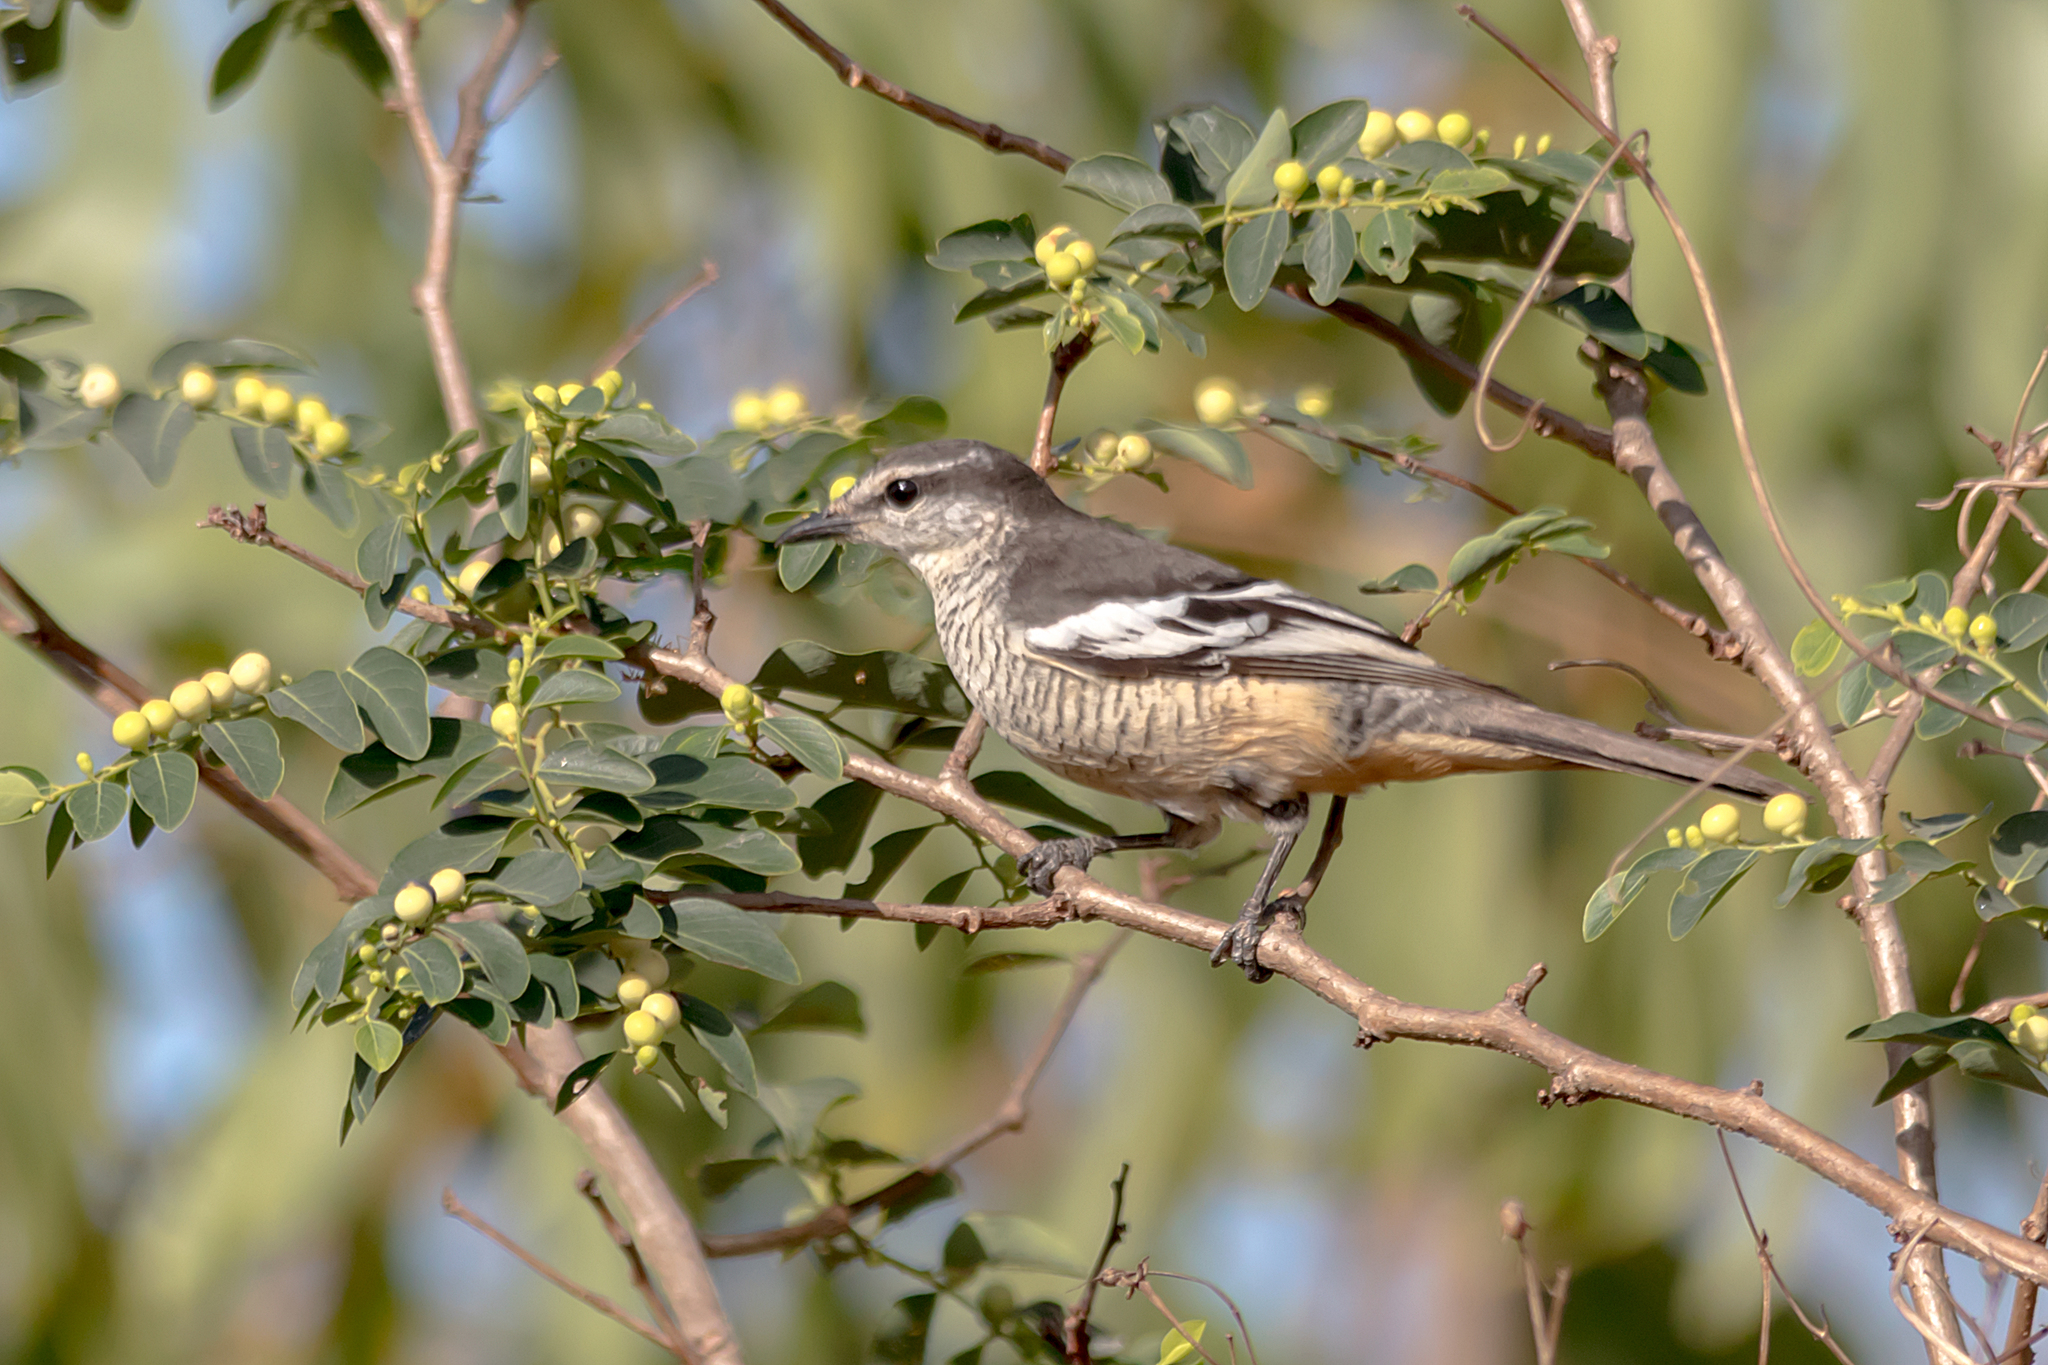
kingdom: Animalia
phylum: Chordata
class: Aves
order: Passeriformes
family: Campephagidae
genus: Lalage
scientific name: Lalage leucomela
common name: Varied triller
